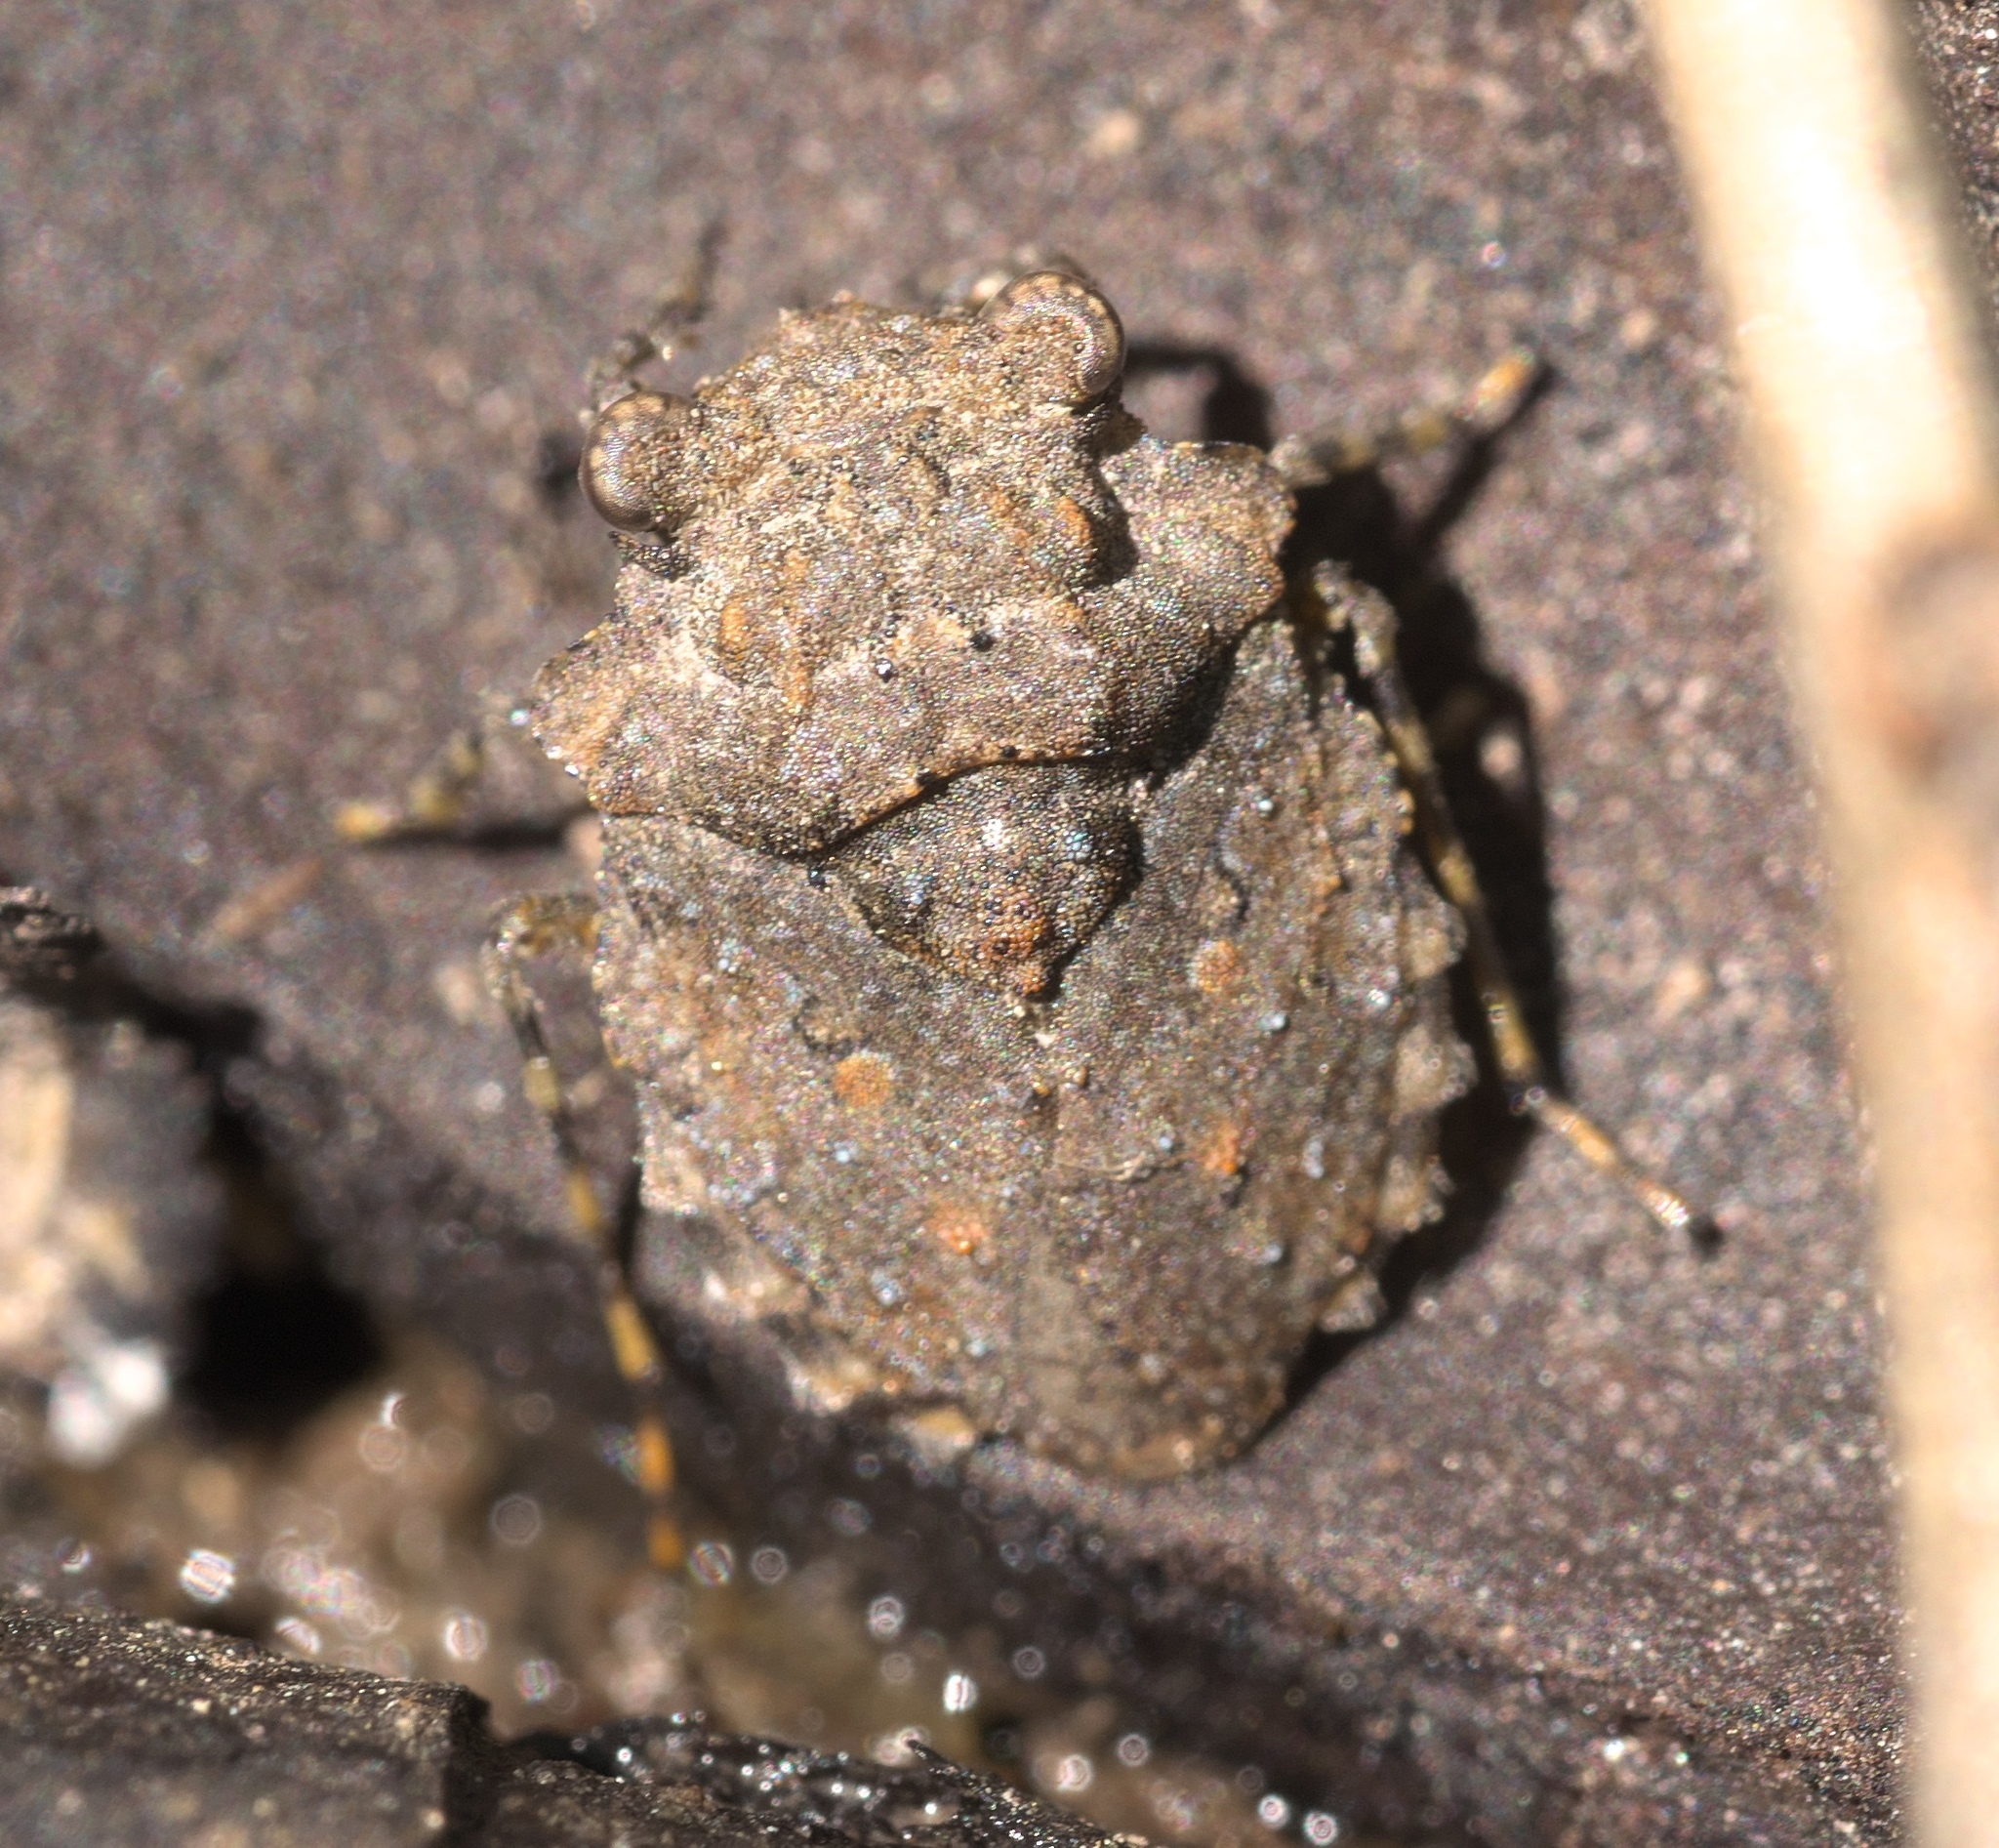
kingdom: Animalia
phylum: Arthropoda
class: Insecta
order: Hemiptera
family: Gelastocoridae
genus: Gelastocoris
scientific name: Gelastocoris oculatus
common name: Toad bug
